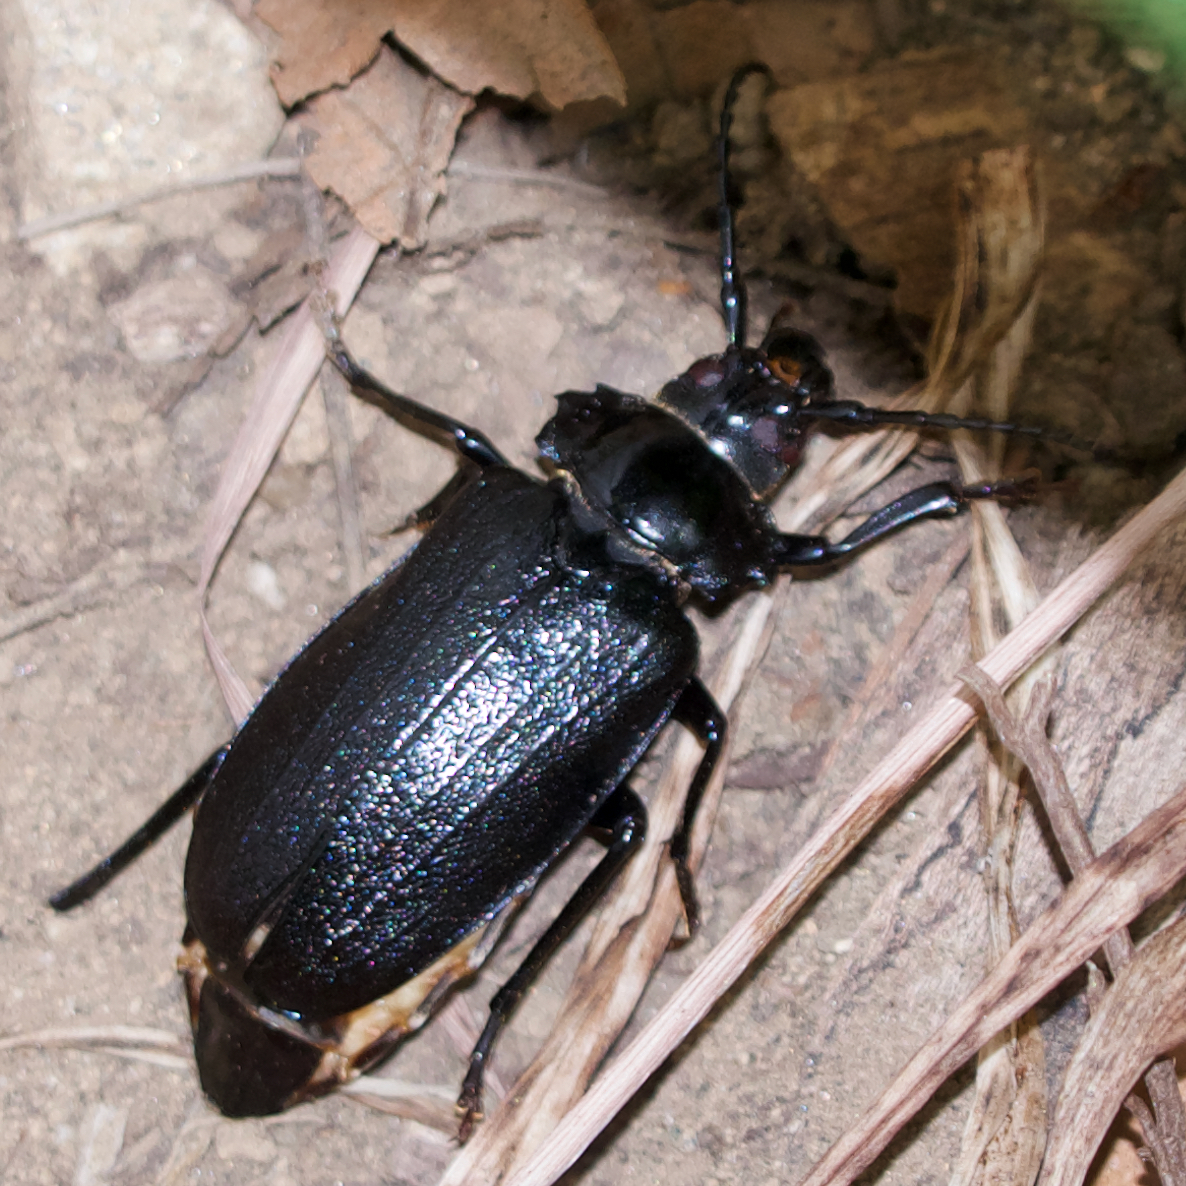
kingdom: Animalia
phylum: Arthropoda
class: Insecta
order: Coleoptera
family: Cerambycidae
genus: Prionus
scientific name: Prionus laticollis
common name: Broad necked prionus
